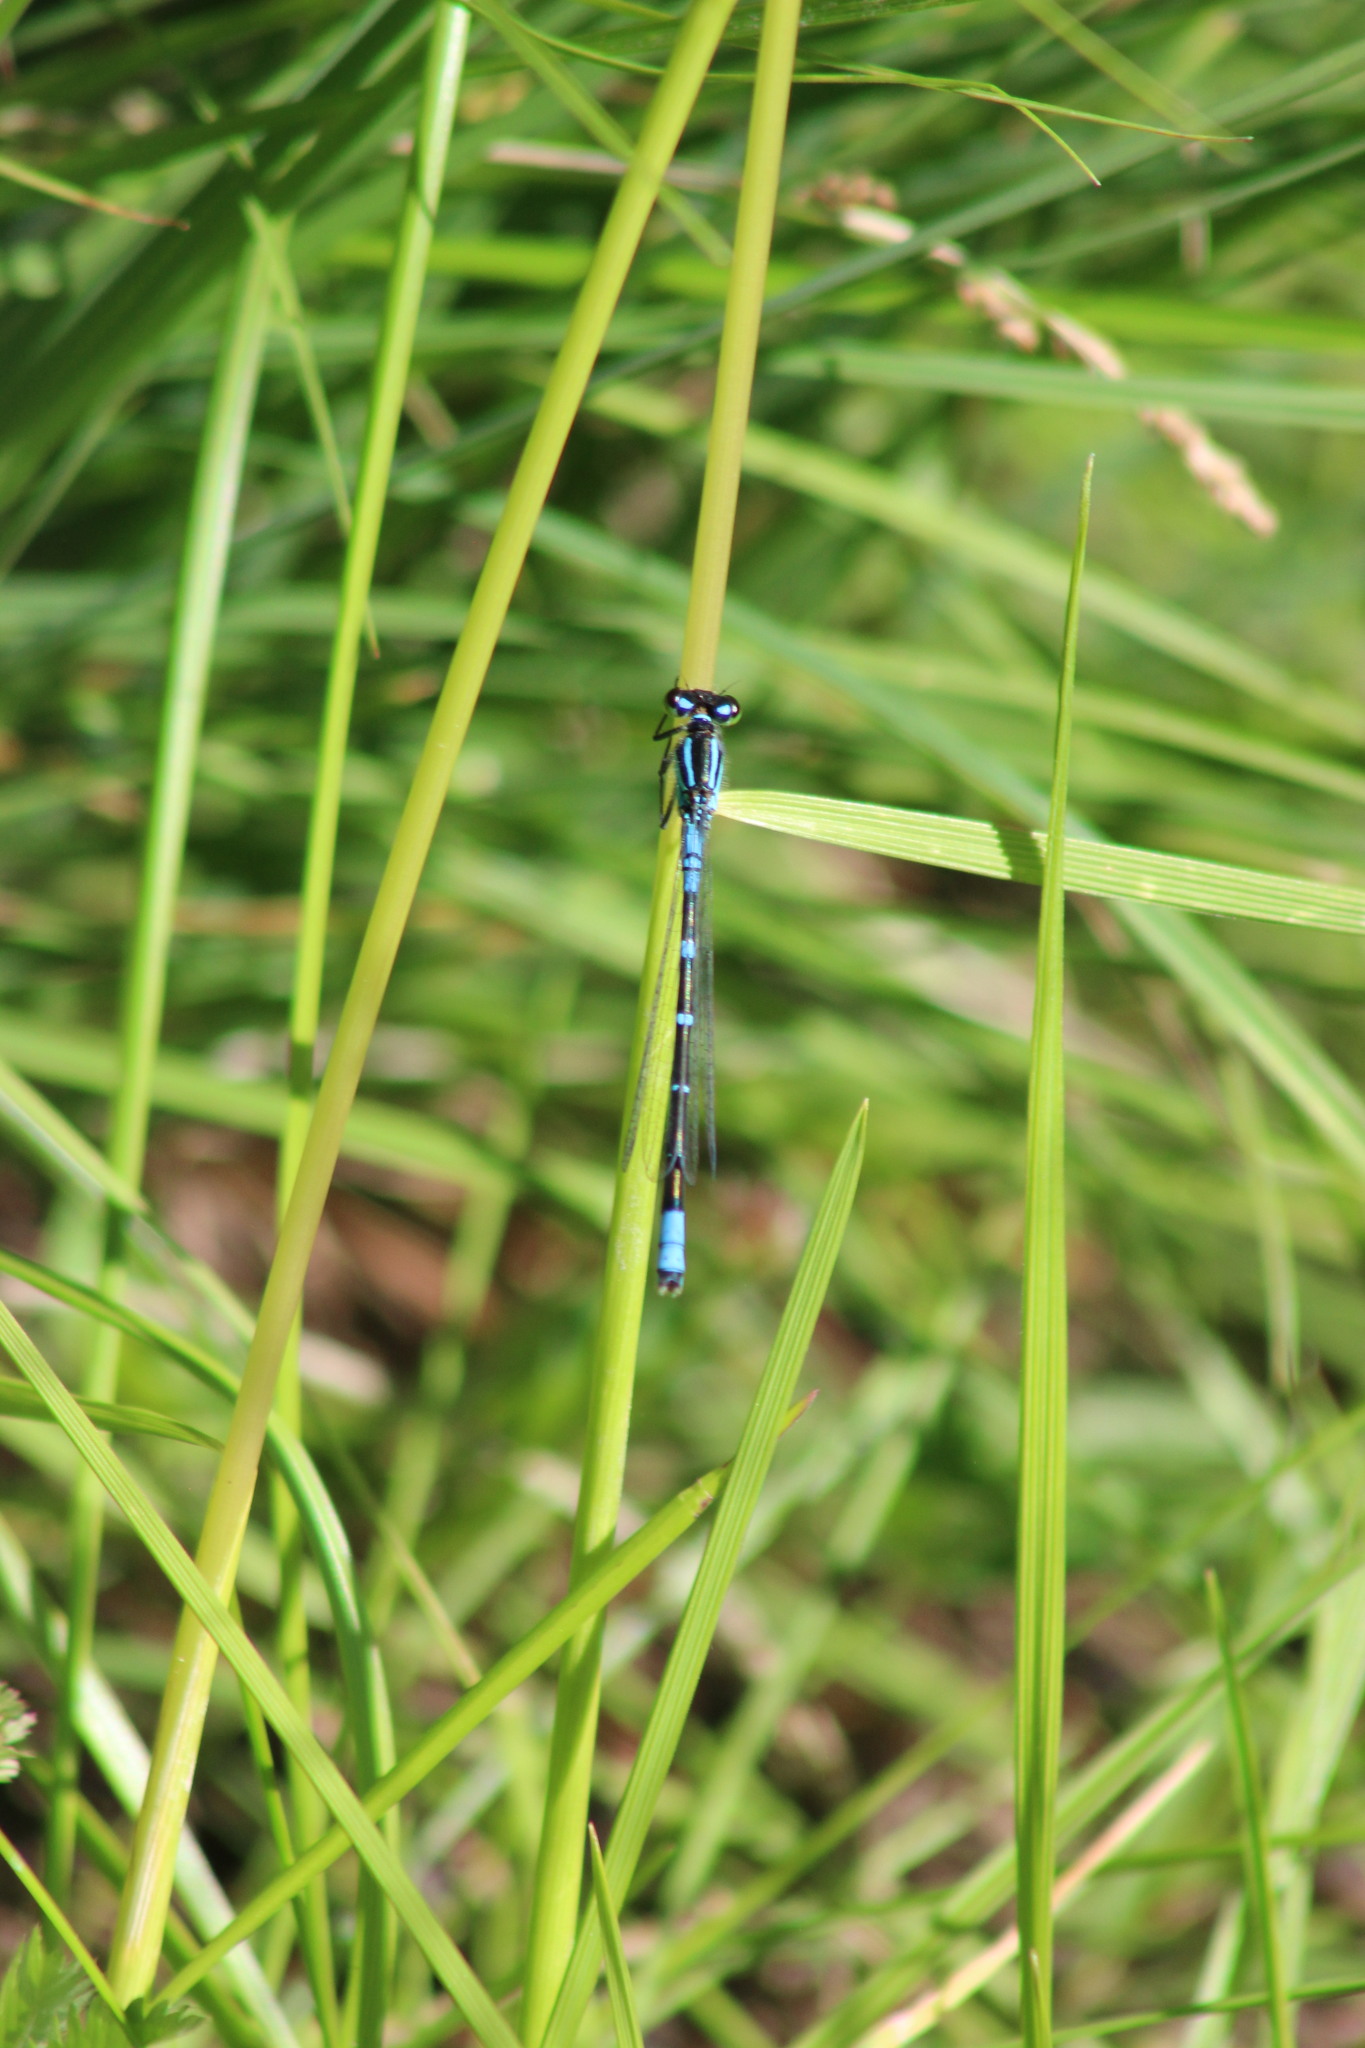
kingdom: Animalia
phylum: Arthropoda
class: Insecta
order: Odonata
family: Coenagrionidae
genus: Coenagrion
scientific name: Coenagrion lunulatum
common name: Irish damselfly
